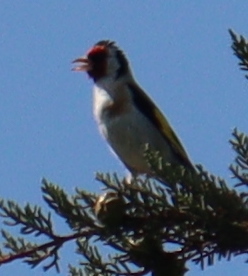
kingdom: Animalia
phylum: Chordata
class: Aves
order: Passeriformes
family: Fringillidae
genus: Carduelis
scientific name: Carduelis carduelis
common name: European goldfinch
